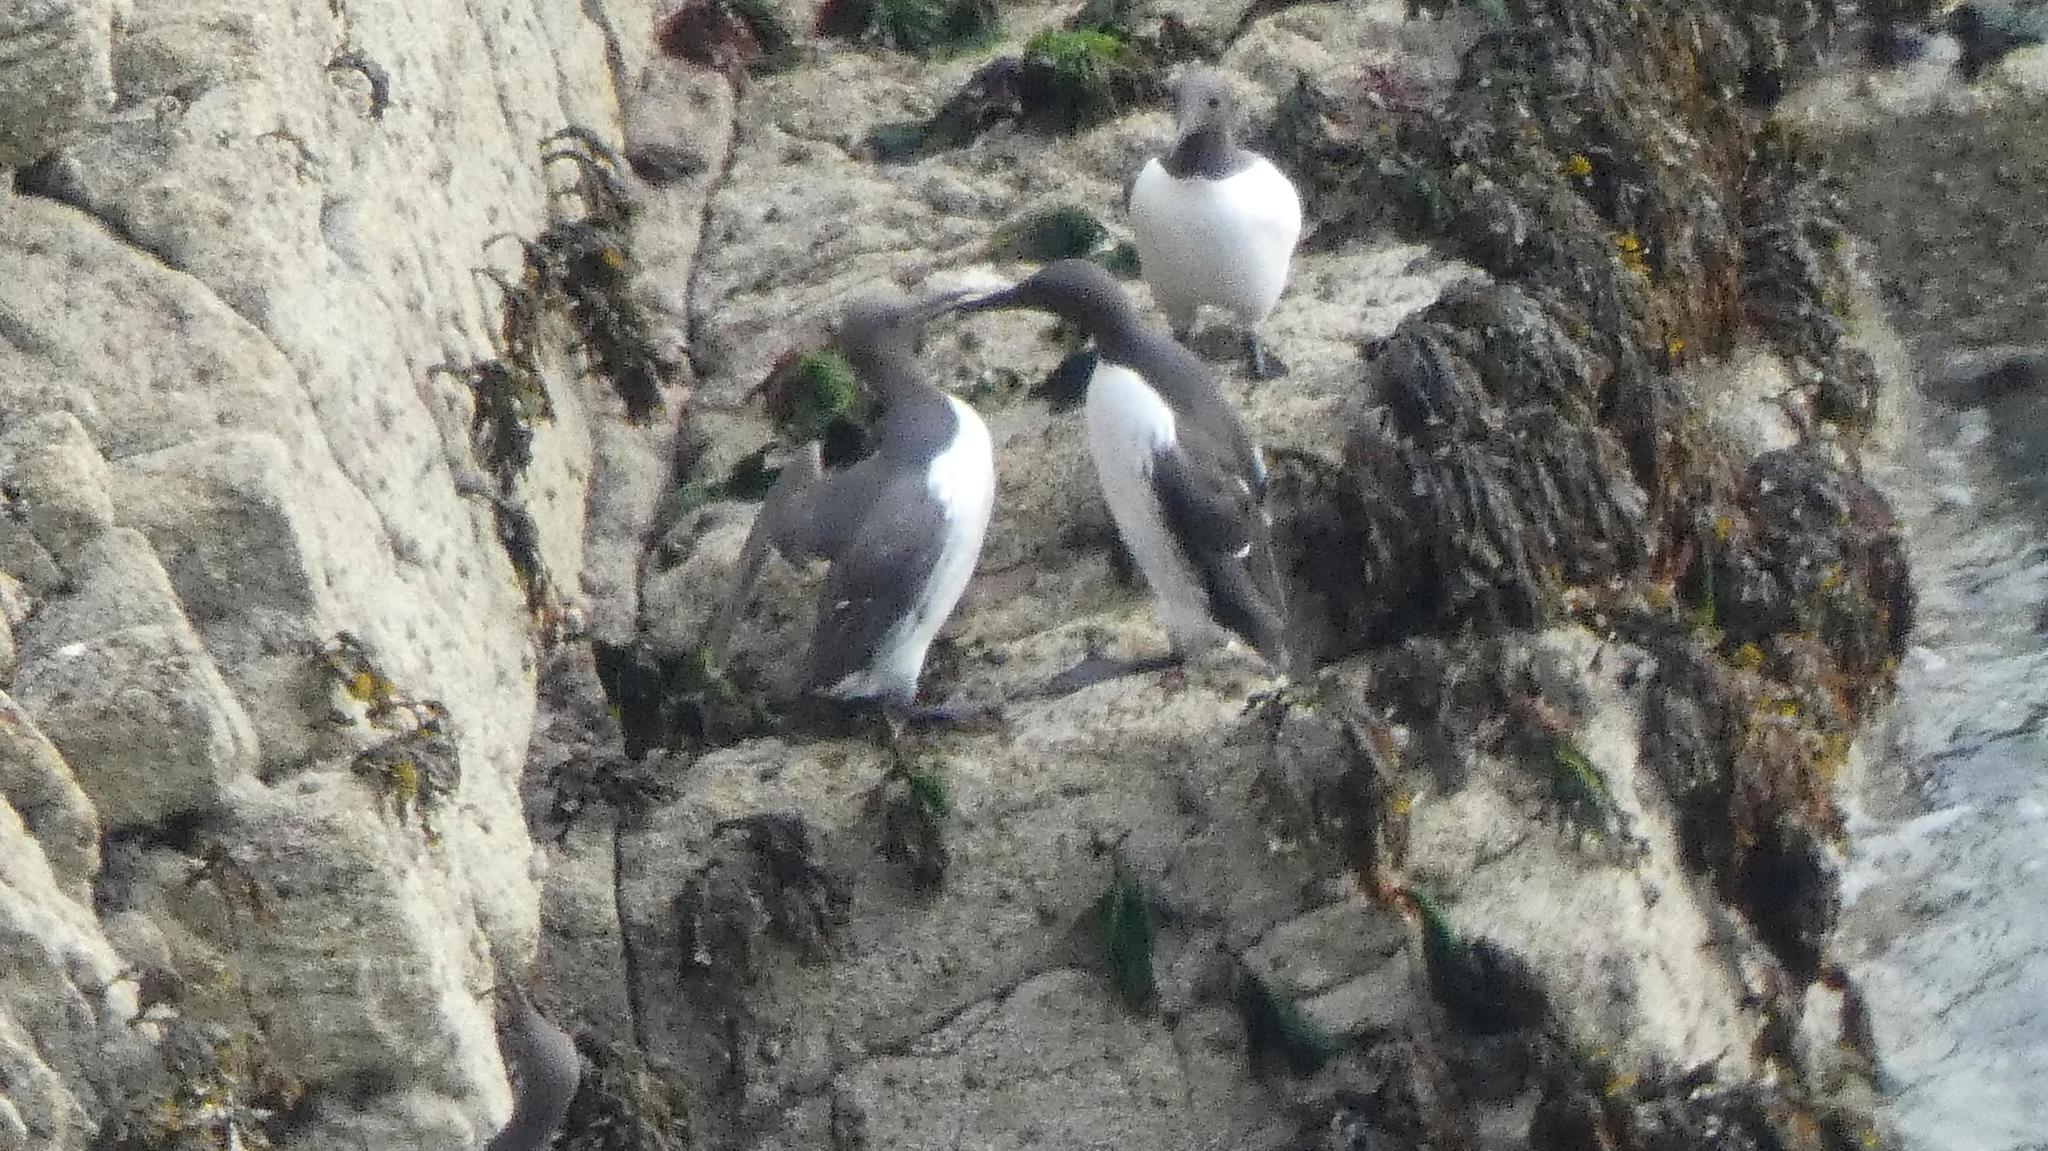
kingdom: Animalia
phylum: Chordata
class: Aves
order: Charadriiformes
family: Alcidae
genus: Uria
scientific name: Uria aalge
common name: Common murre
